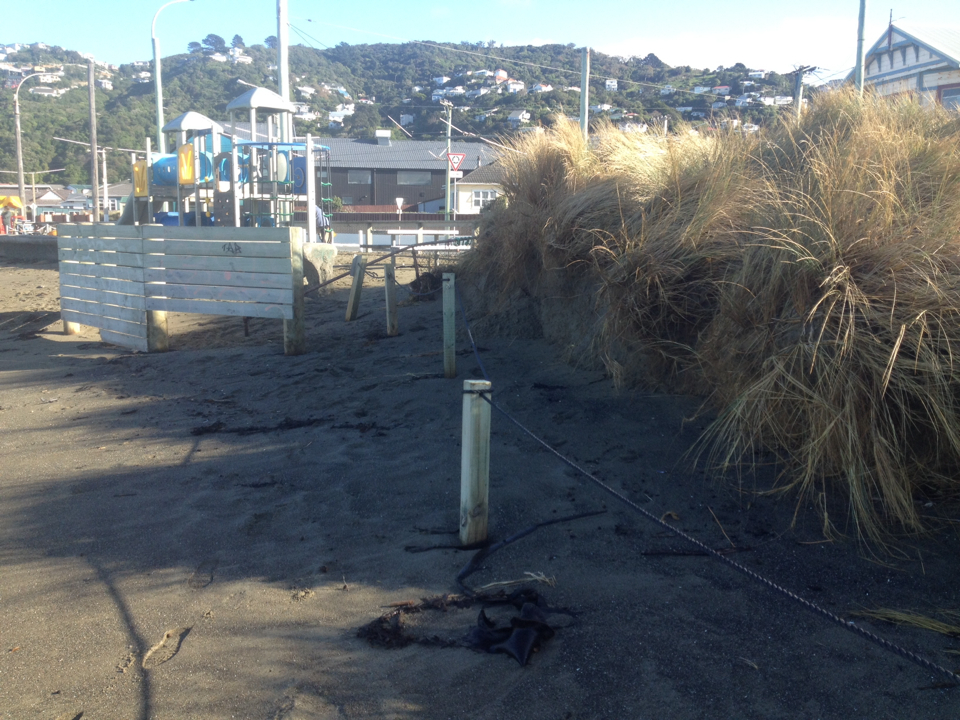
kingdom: Plantae
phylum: Tracheophyta
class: Liliopsida
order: Poales
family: Poaceae
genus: Calamagrostis
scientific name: Calamagrostis arenaria
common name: European beachgrass
